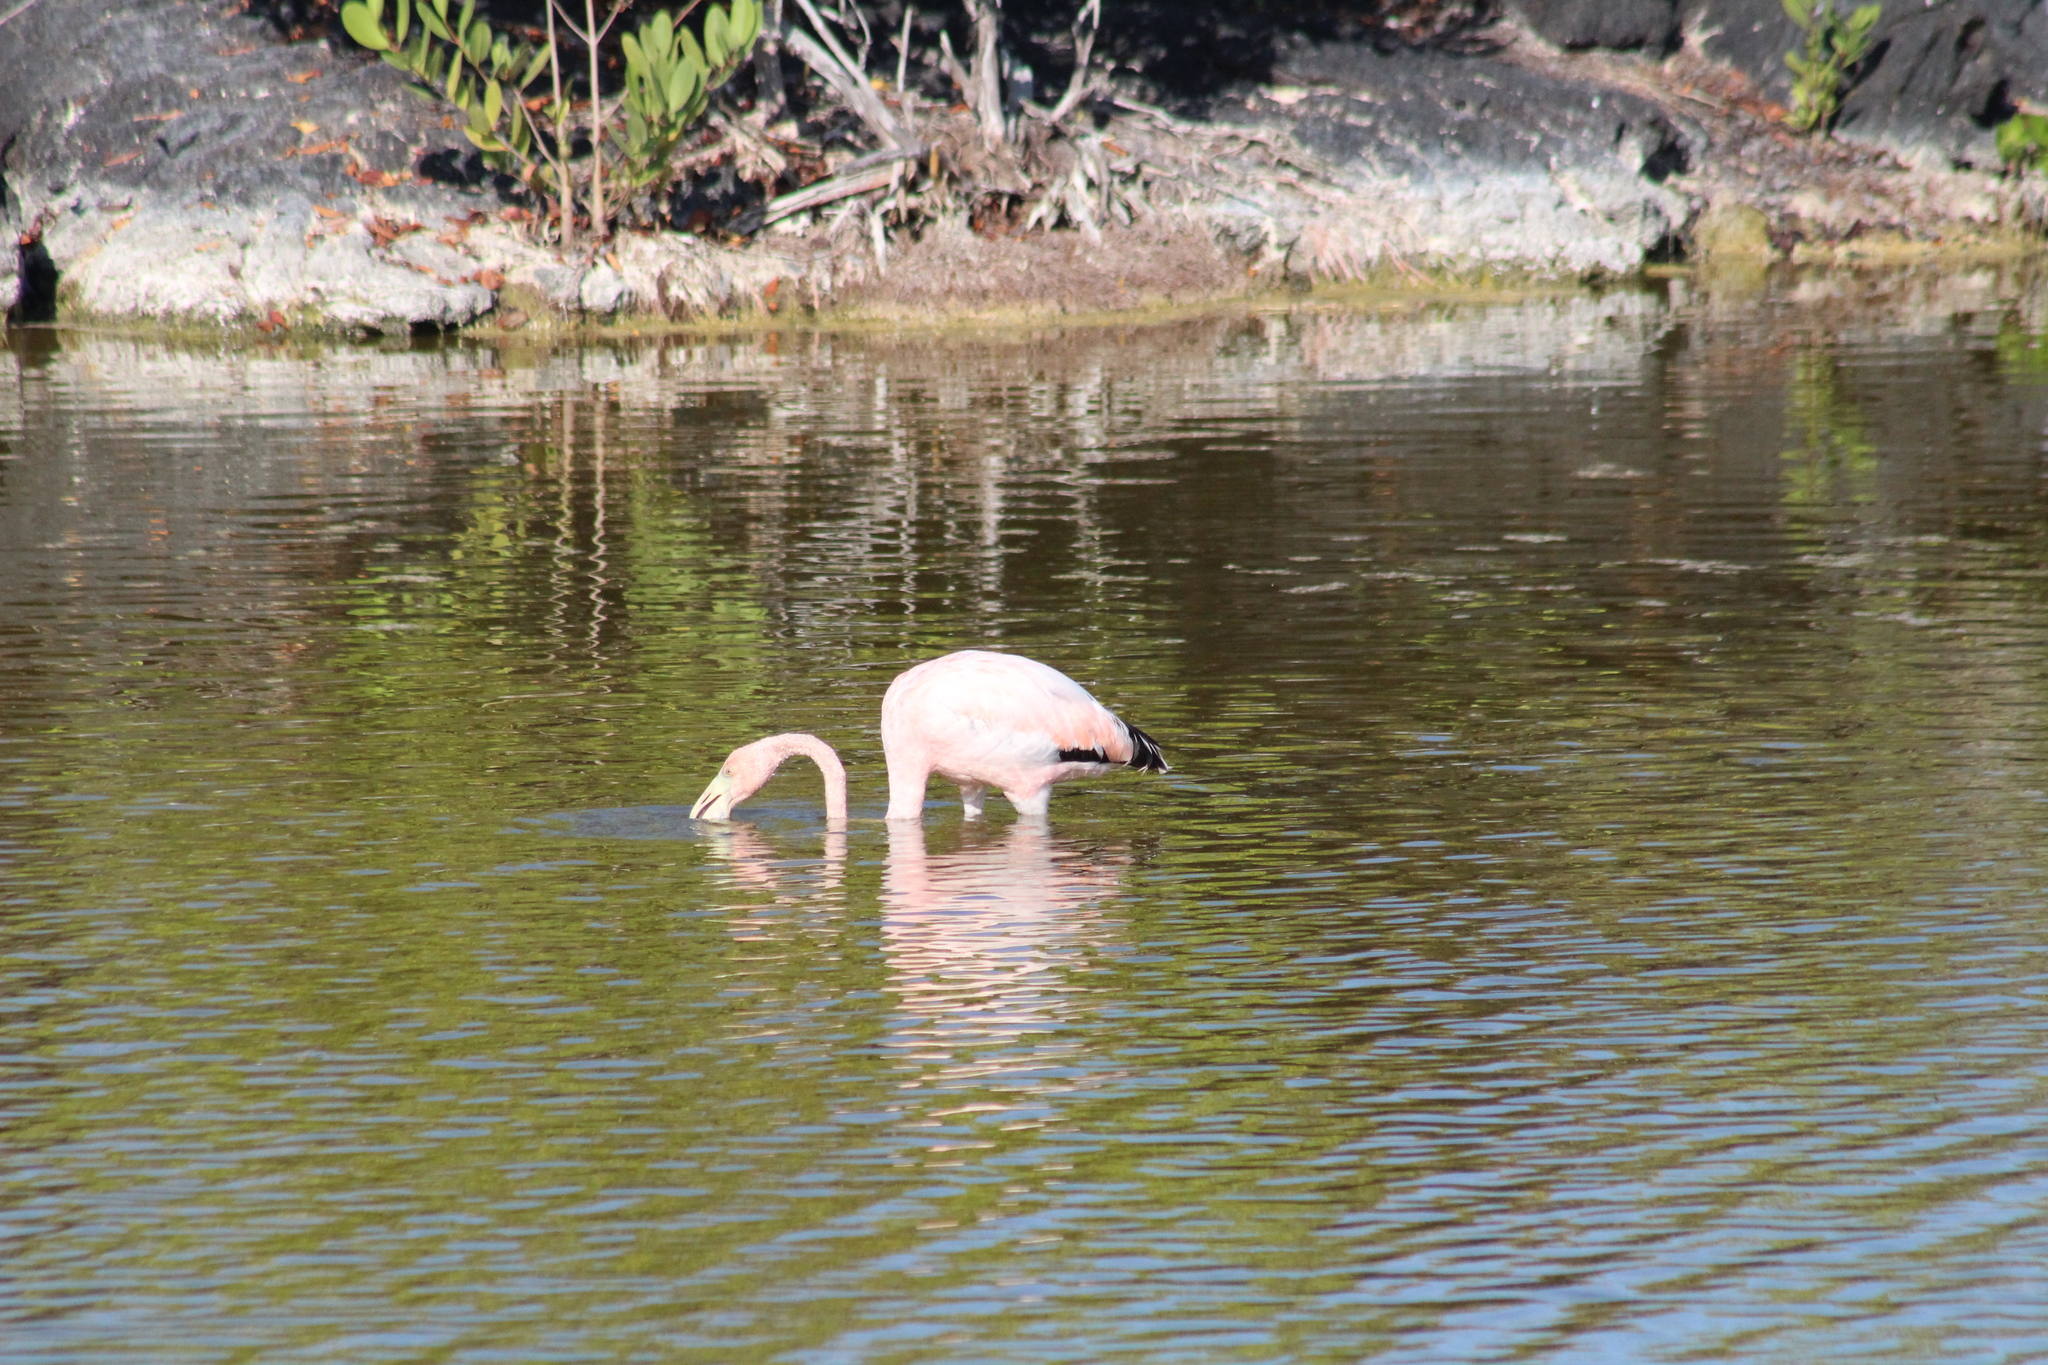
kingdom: Animalia
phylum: Chordata
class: Aves
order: Phoenicopteriformes
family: Phoenicopteridae
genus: Phoenicopterus
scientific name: Phoenicopterus ruber
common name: American flamingo
